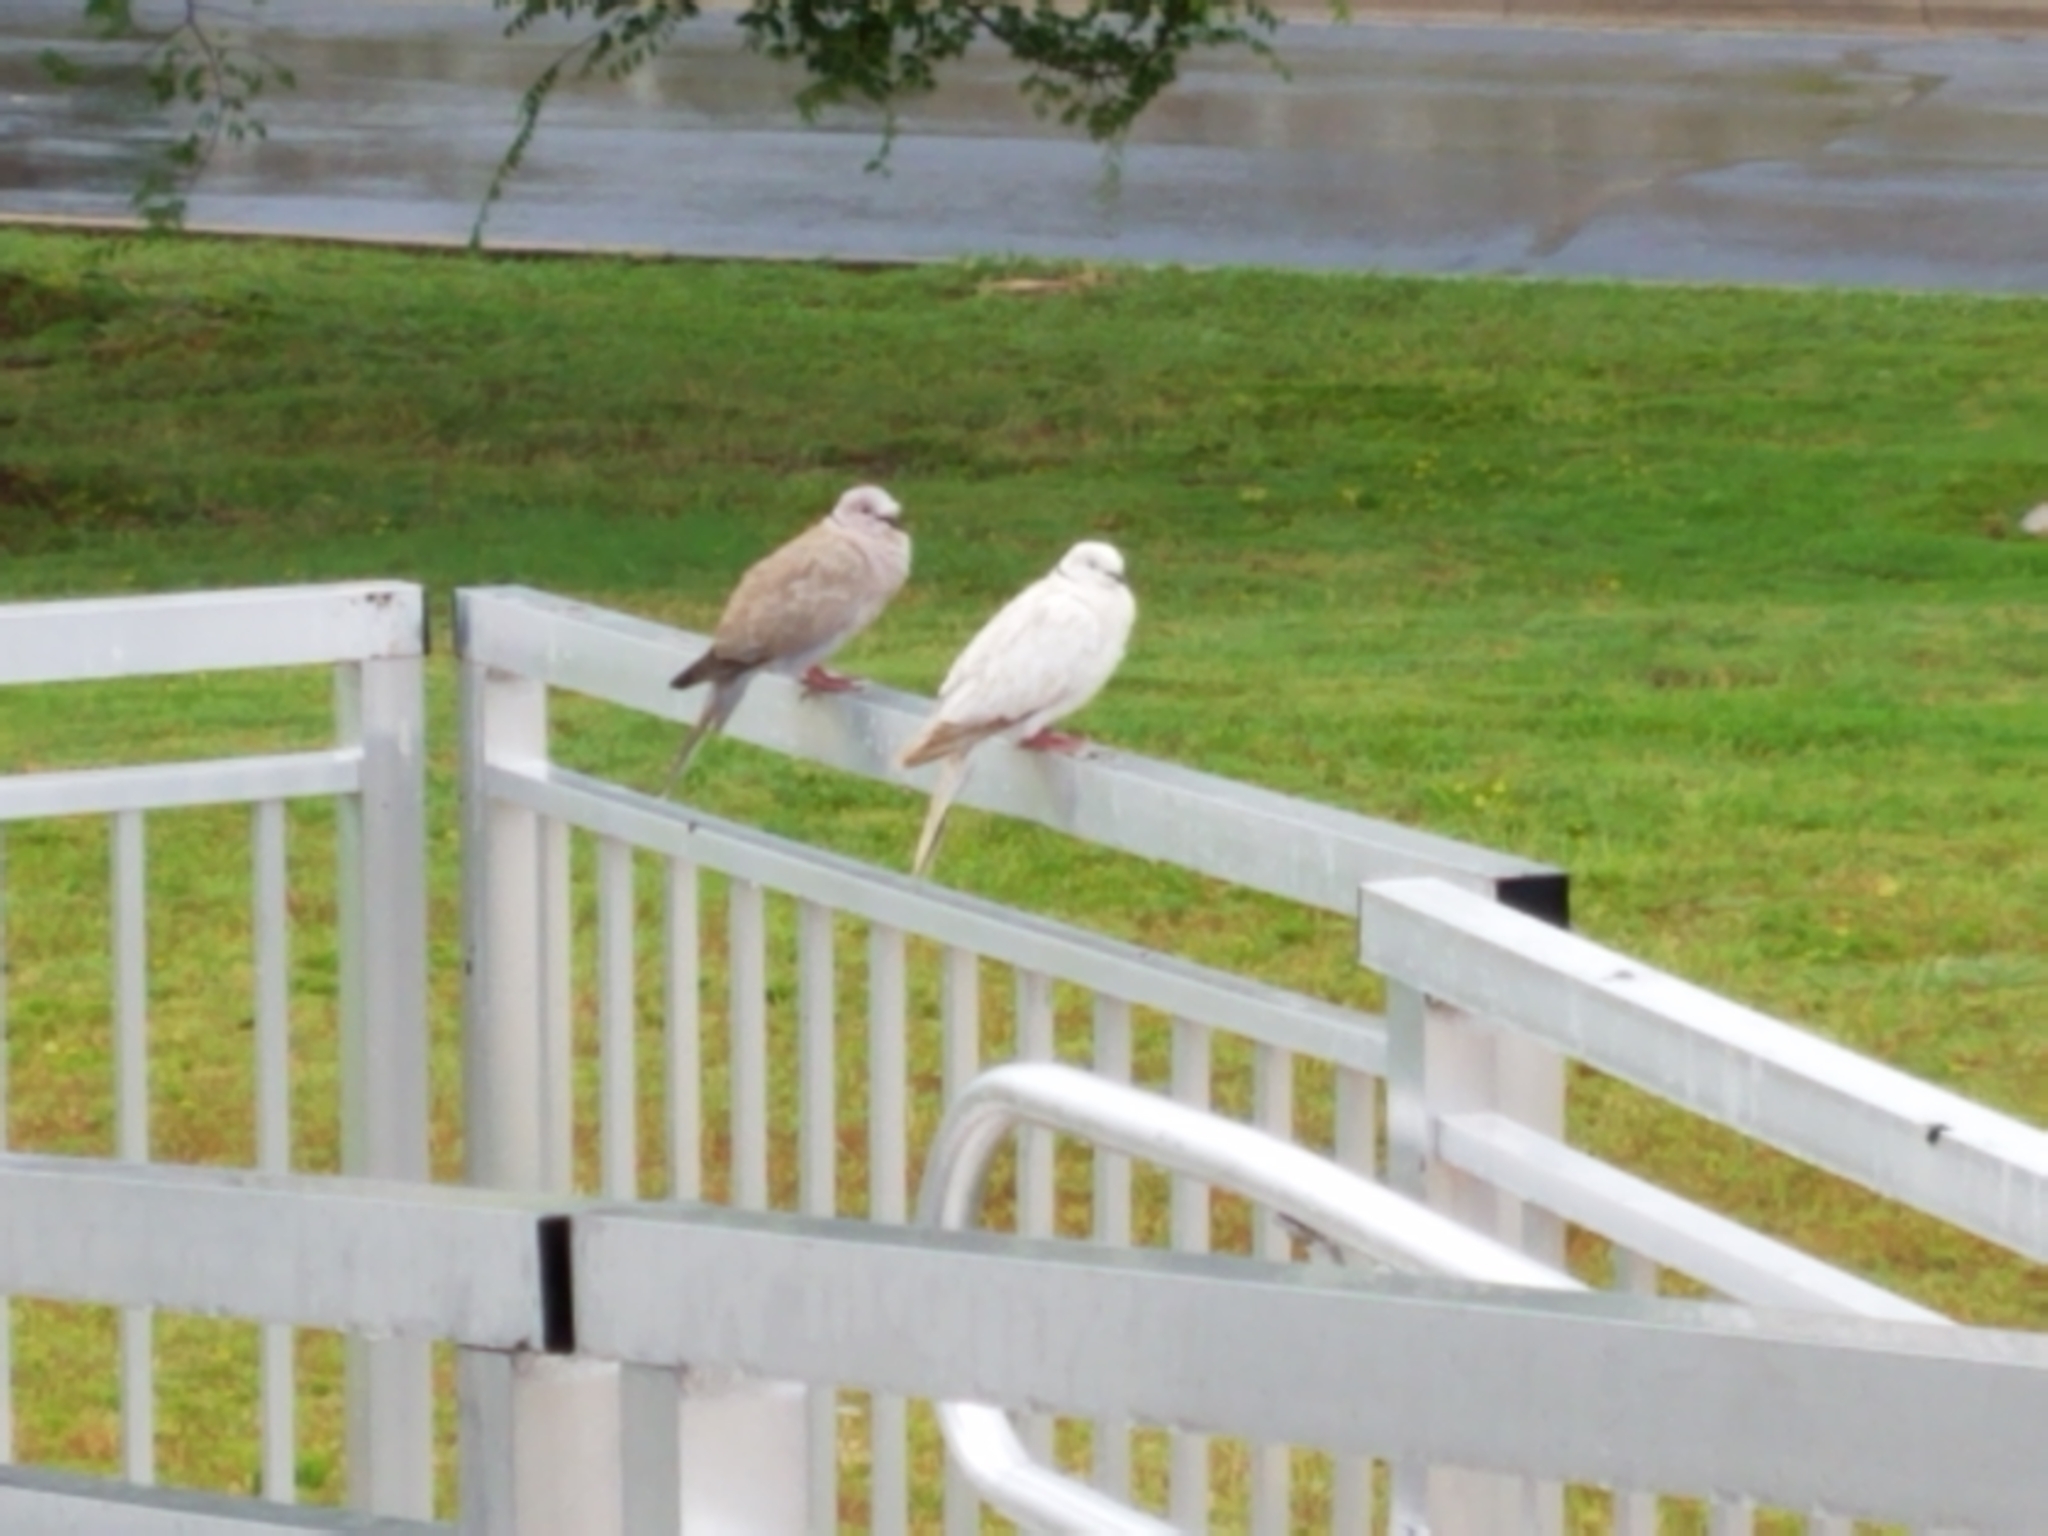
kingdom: Animalia
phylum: Chordata
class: Aves
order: Columbiformes
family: Columbidae
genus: Streptopelia
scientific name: Streptopelia decaocto
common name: Eurasian collared dove
